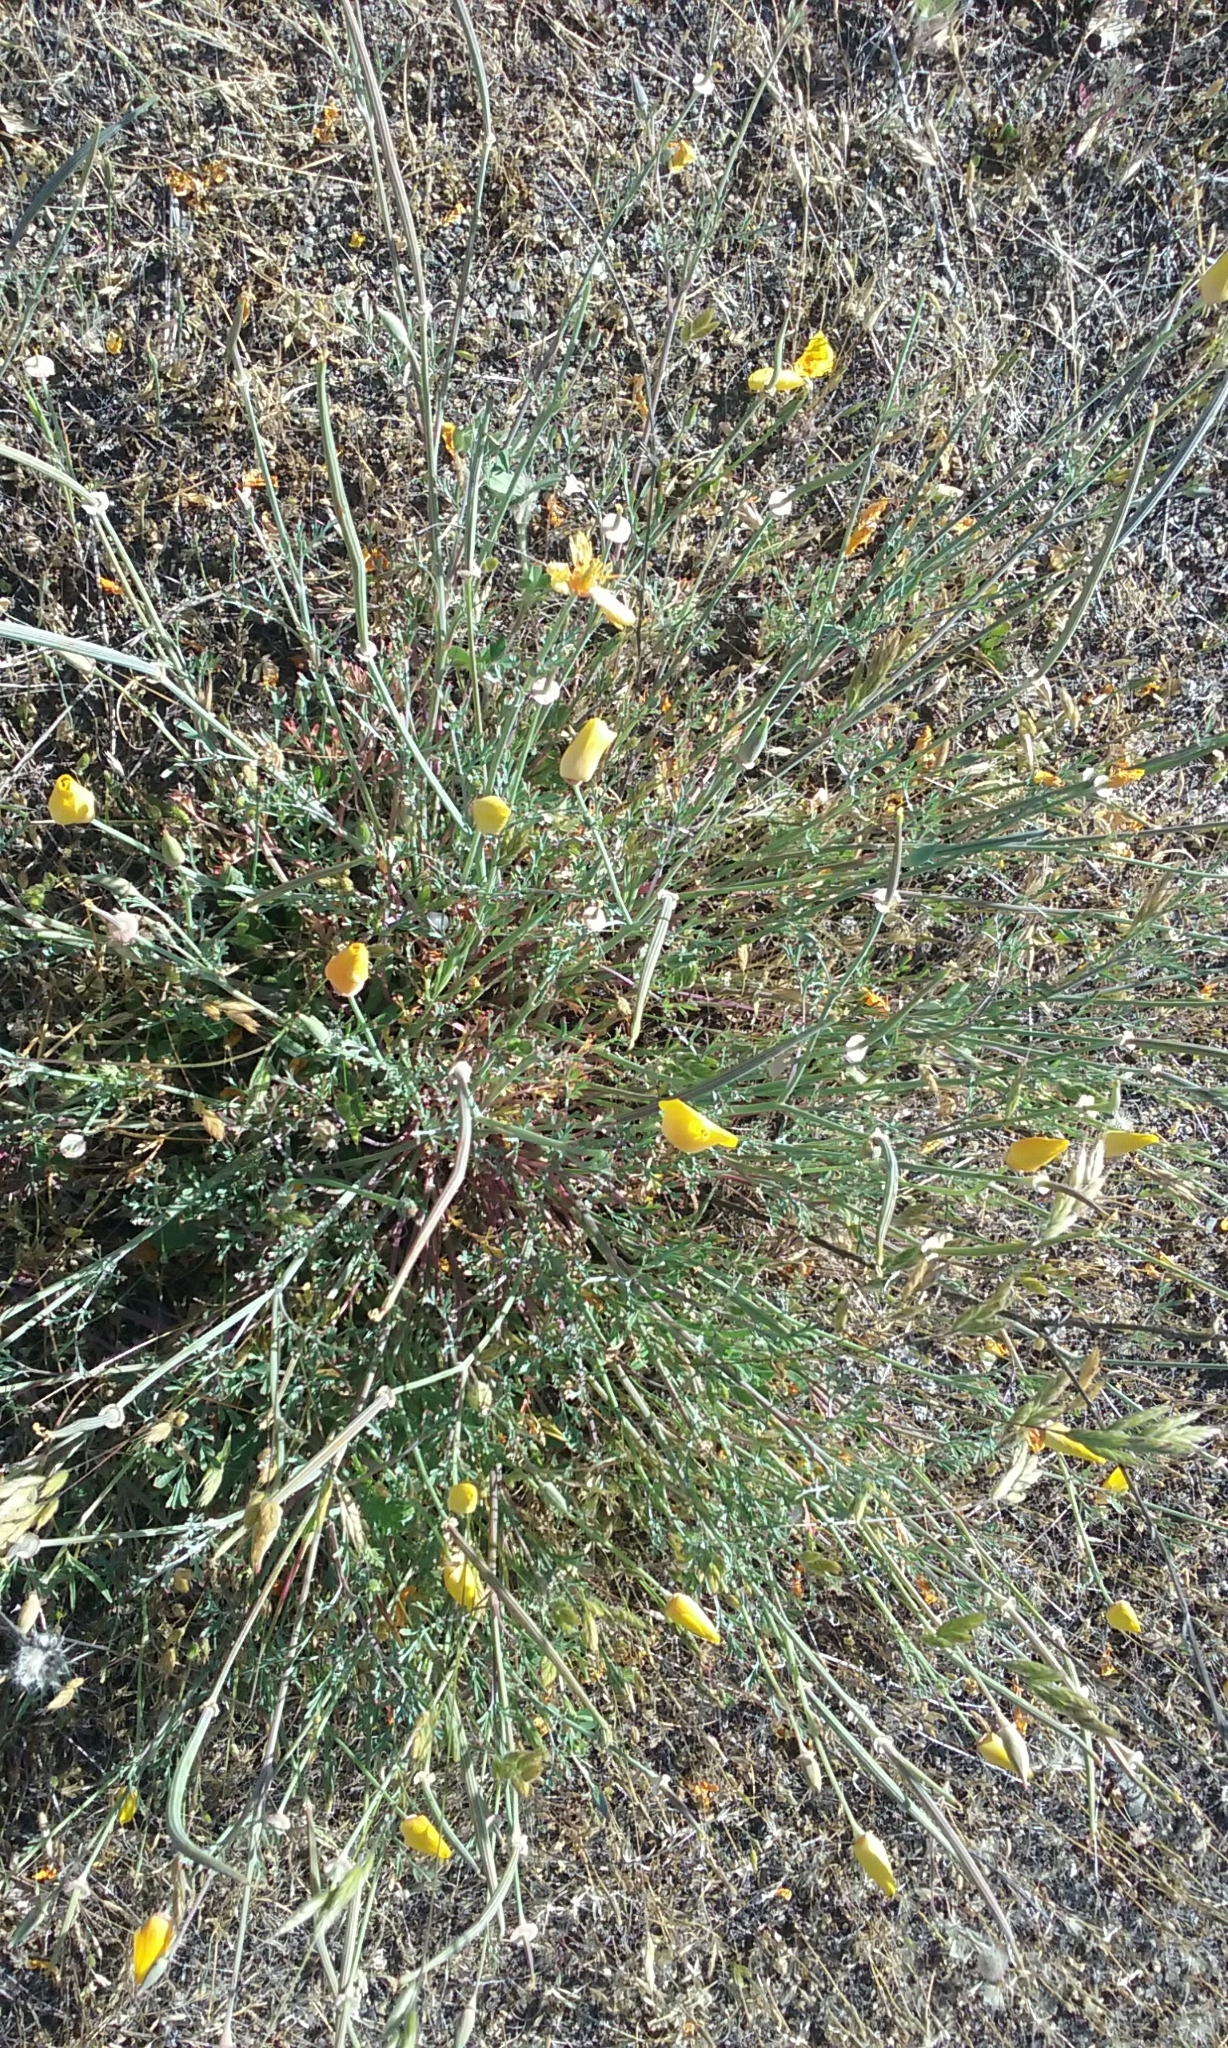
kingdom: Plantae
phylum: Tracheophyta
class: Magnoliopsida
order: Ranunculales
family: Papaveraceae
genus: Eschscholzia
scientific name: Eschscholzia californica
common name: California poppy
